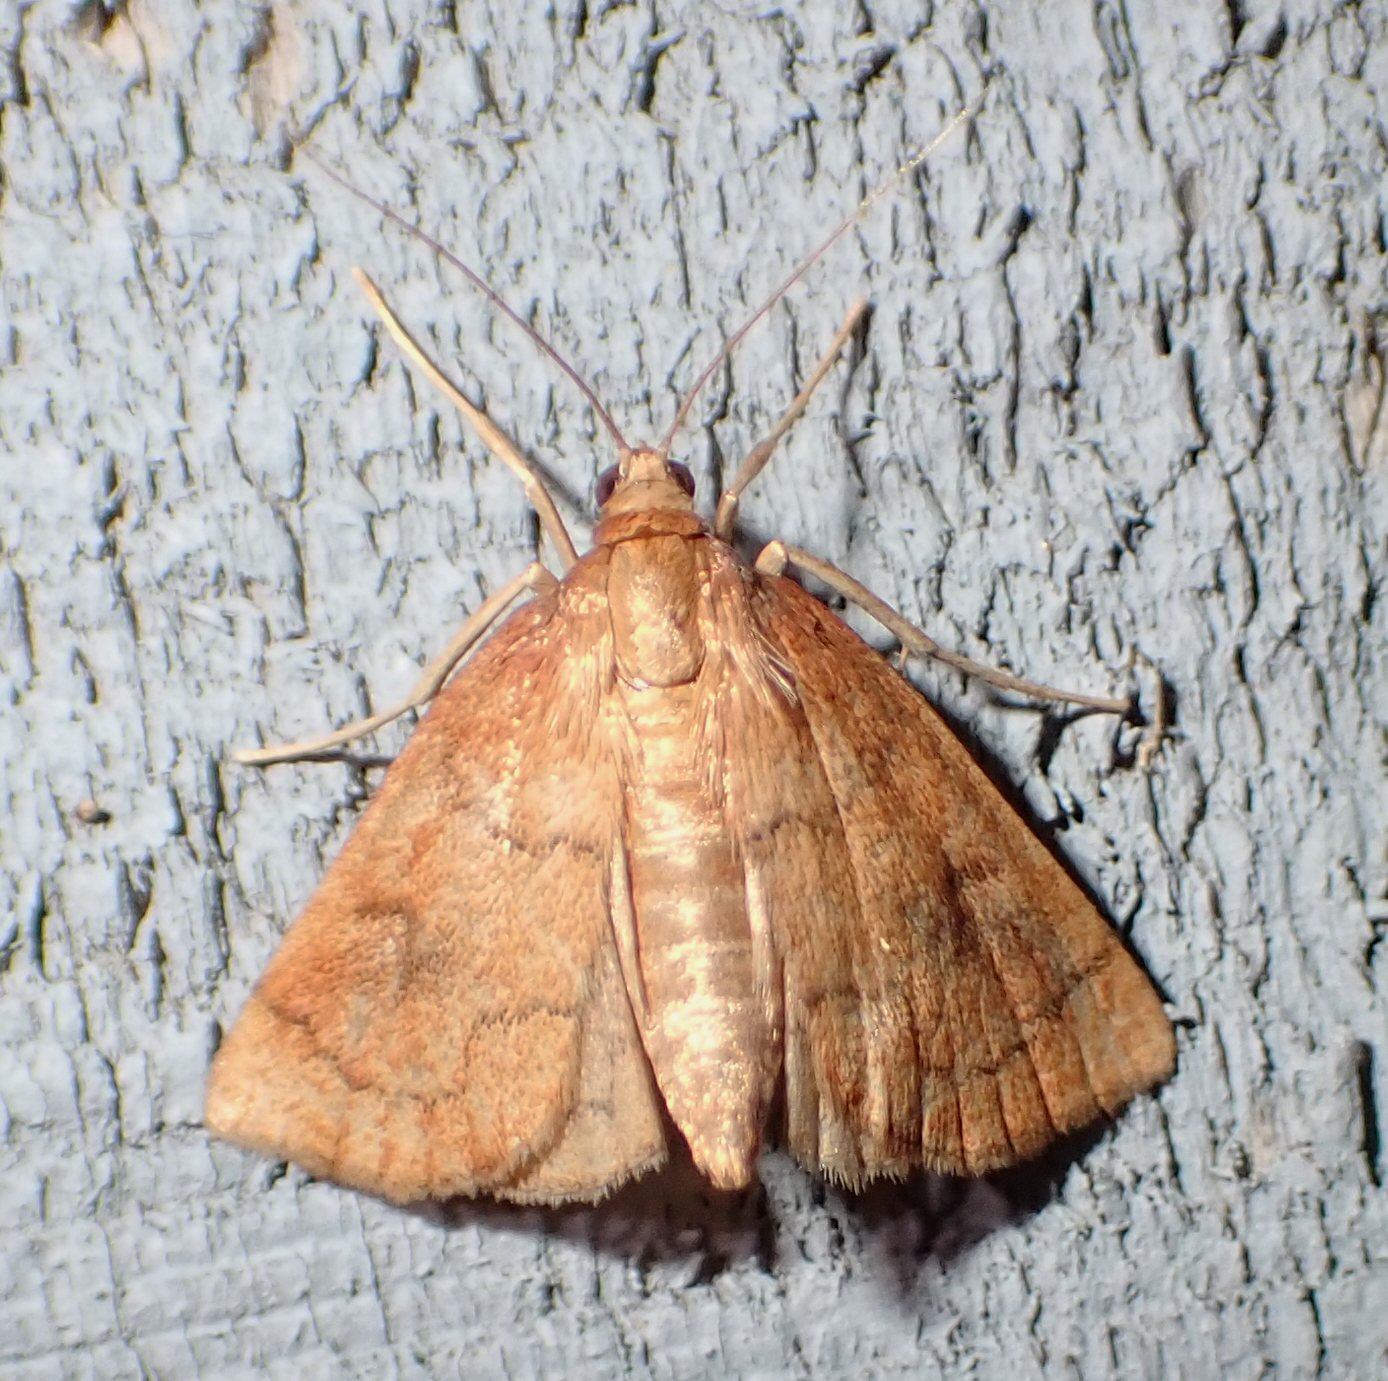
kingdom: Animalia
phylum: Arthropoda
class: Insecta
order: Lepidoptera
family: Crambidae
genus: Fumibotys
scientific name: Fumibotys fumalis
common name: Mint root borer moth
